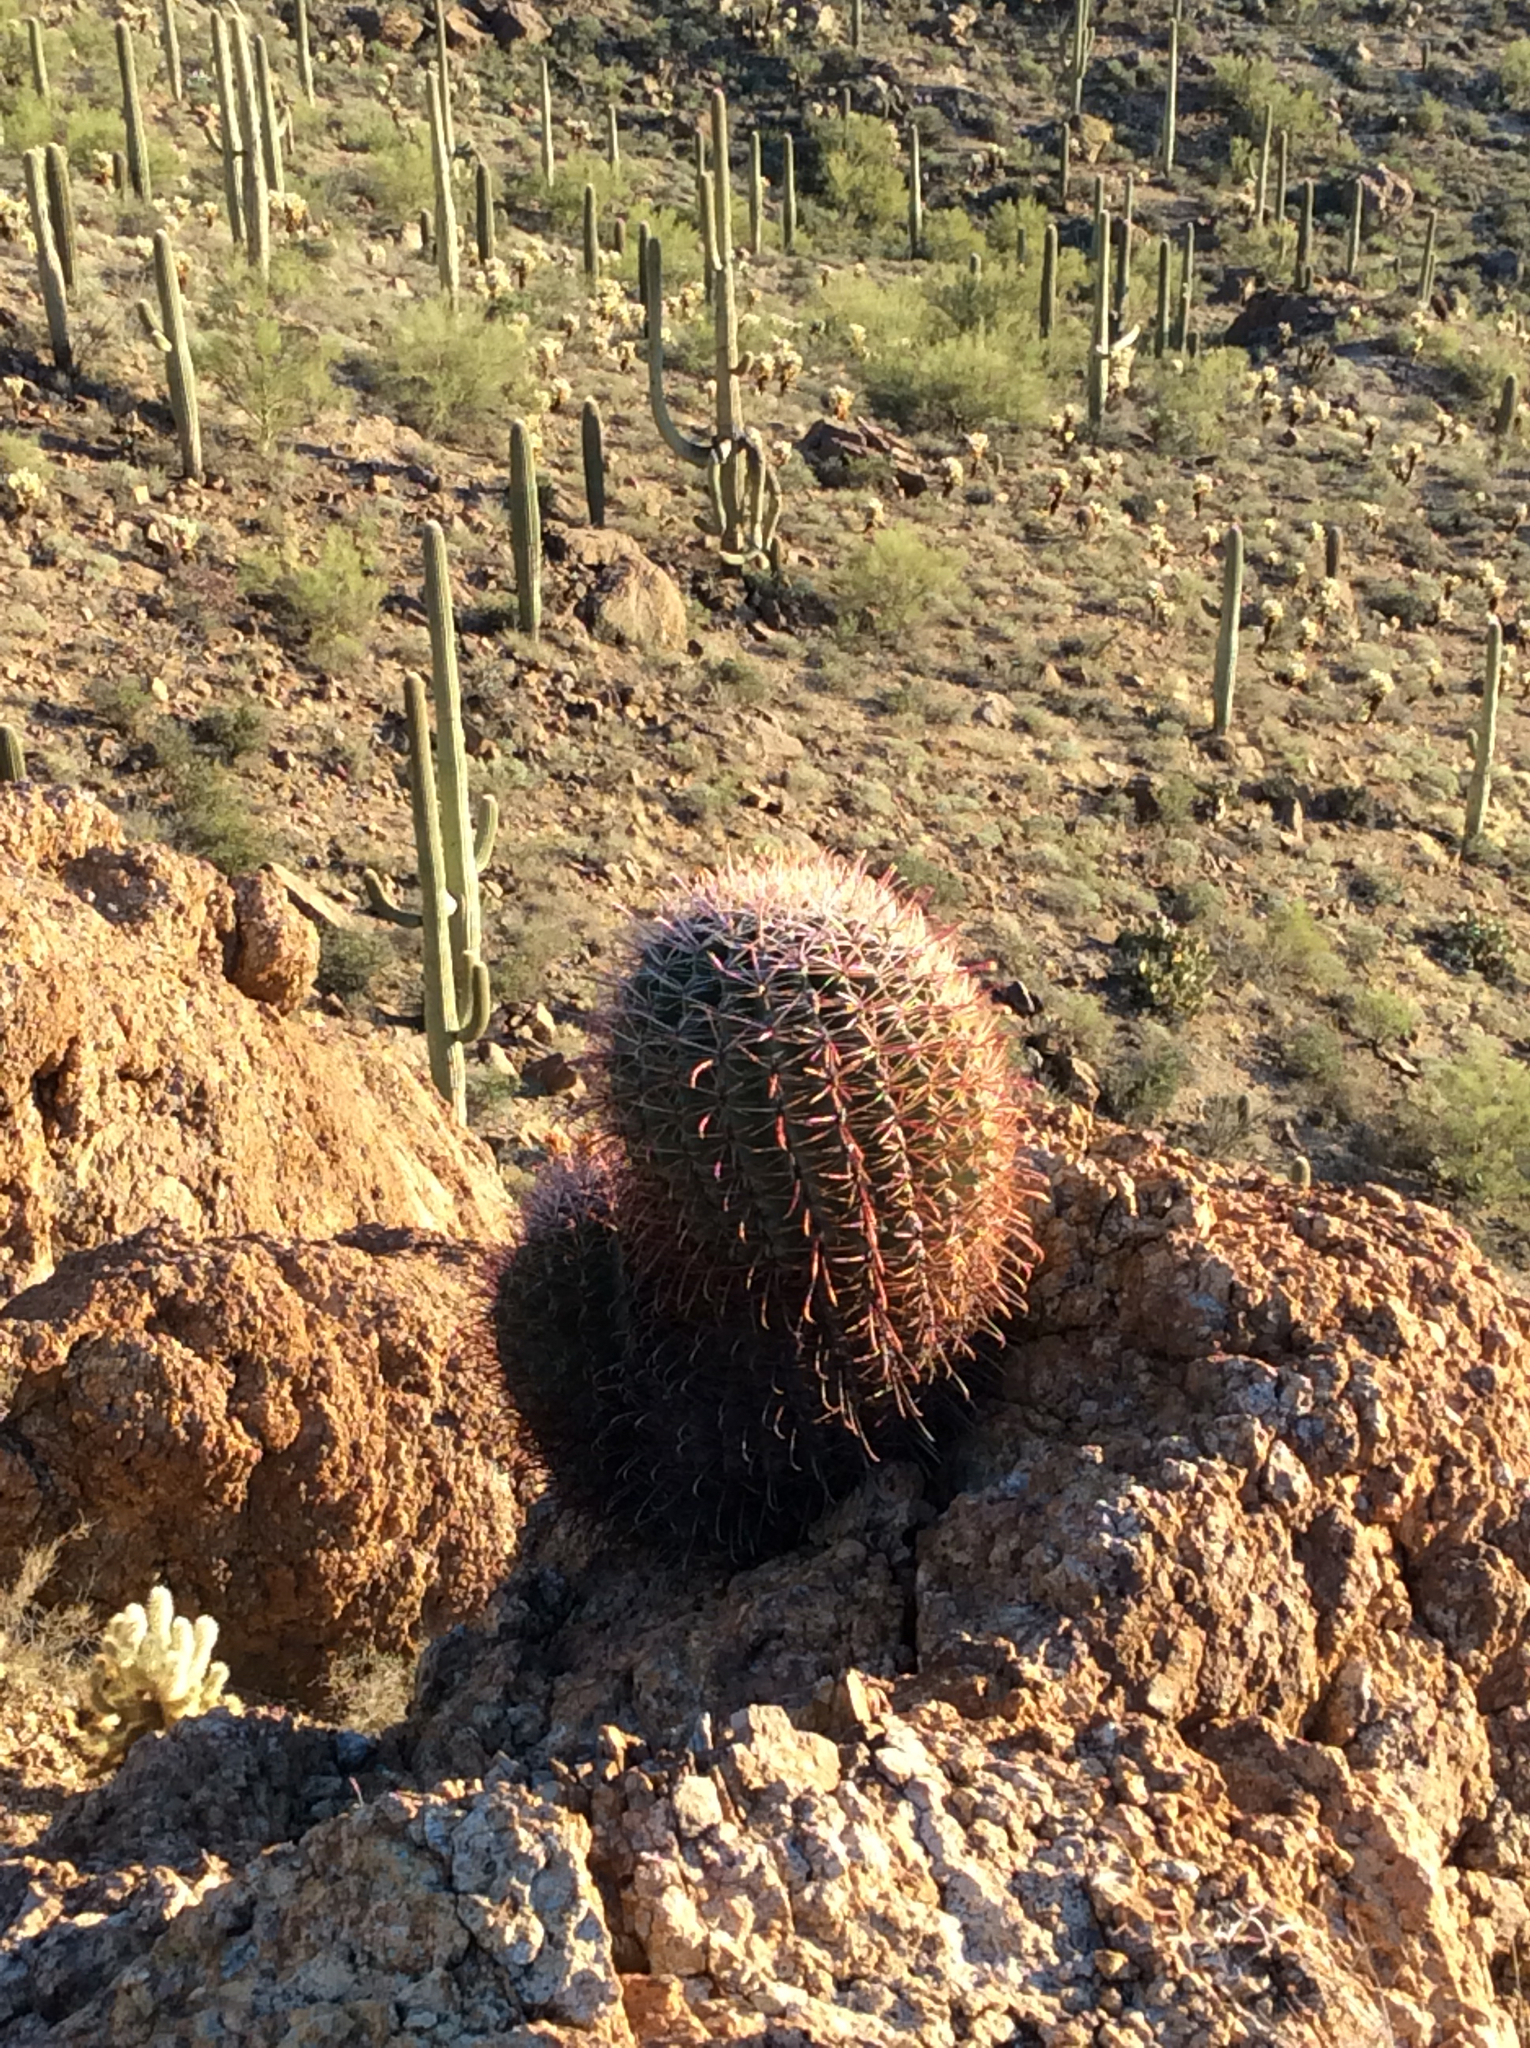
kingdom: Plantae
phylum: Tracheophyta
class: Magnoliopsida
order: Caryophyllales
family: Cactaceae
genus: Ferocactus
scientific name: Ferocactus wislizeni
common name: Candy barrel cactus
